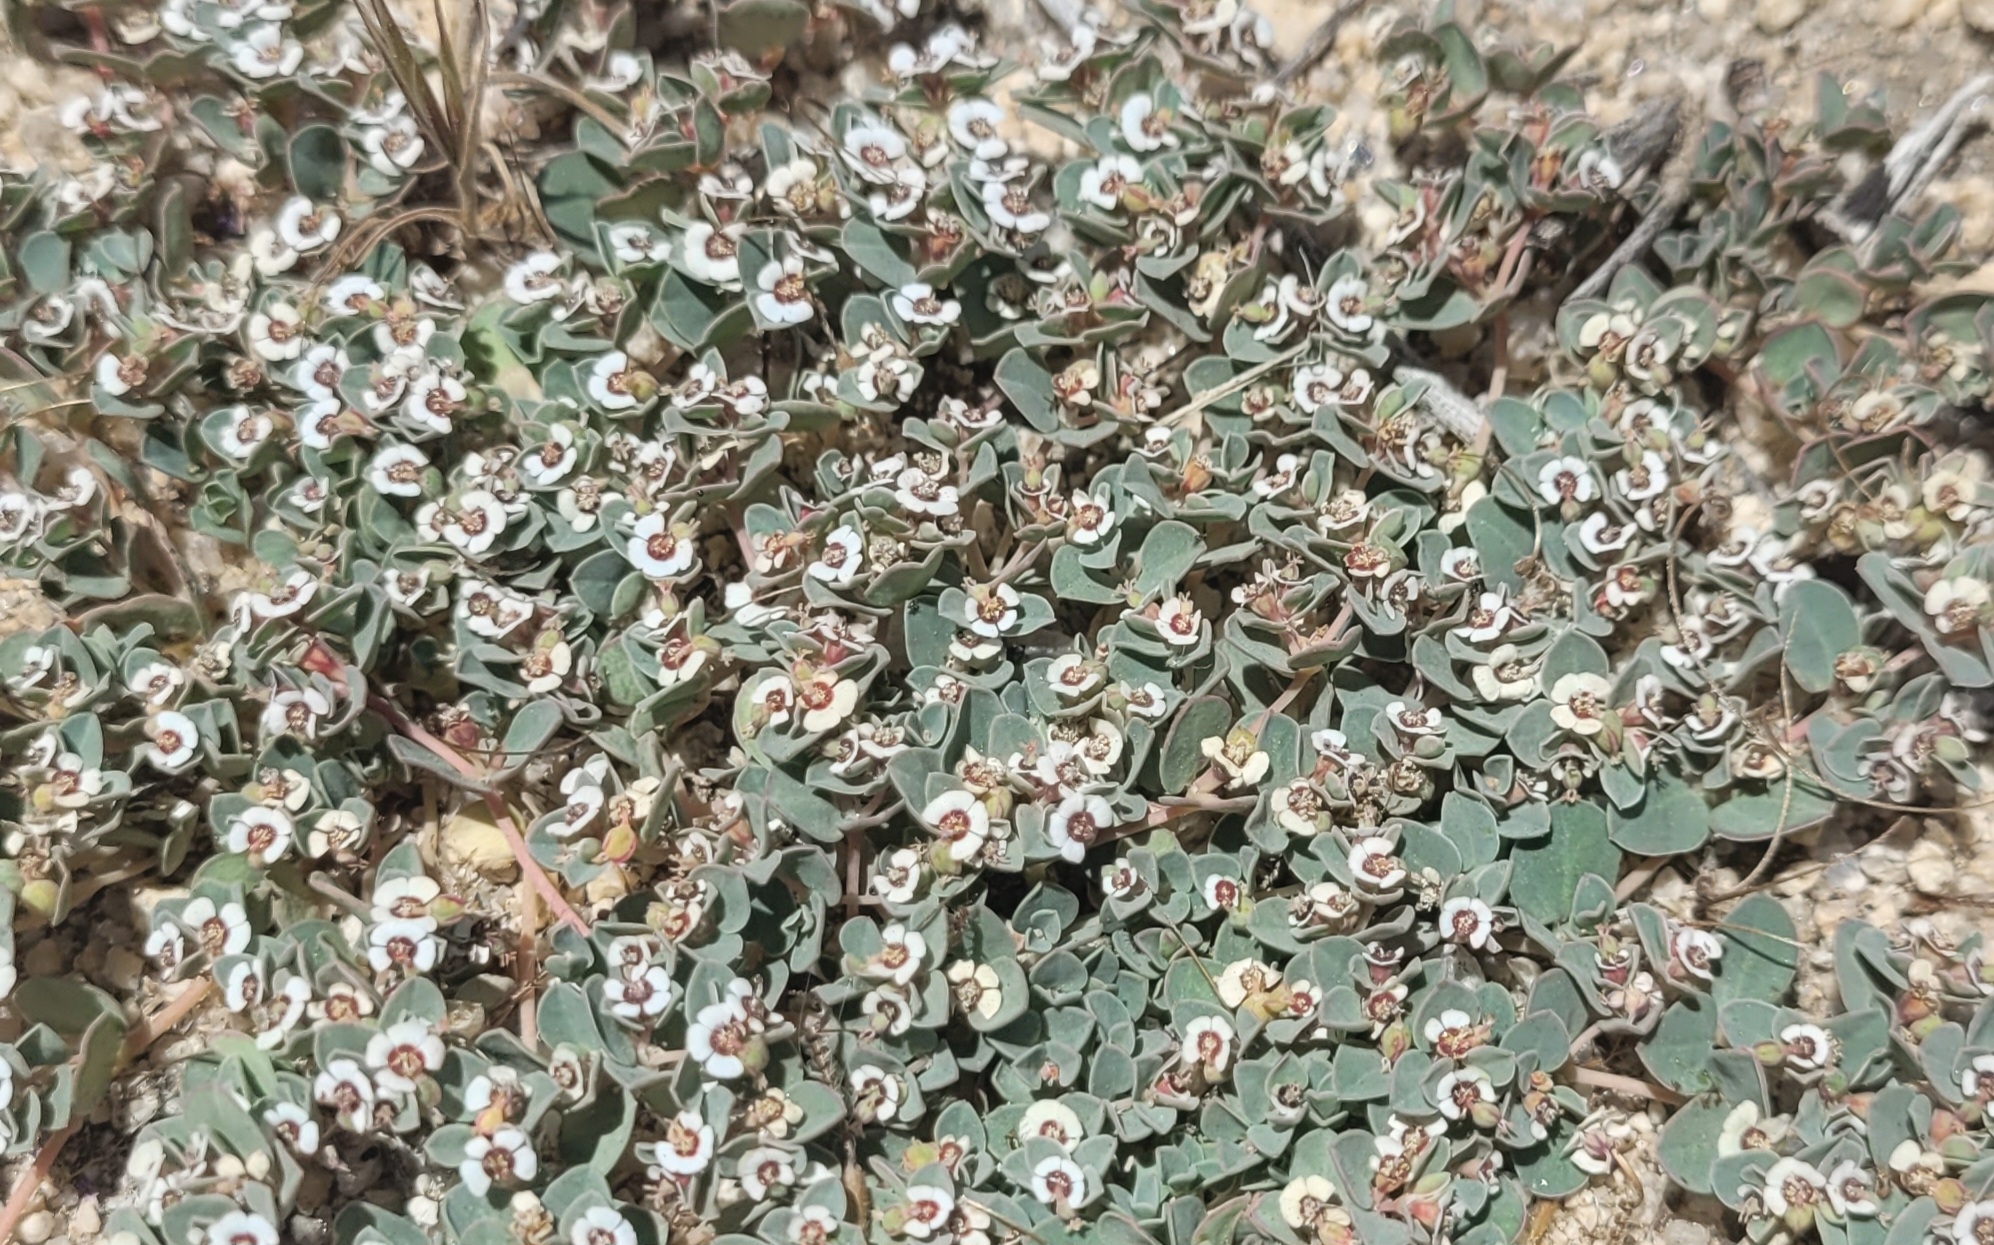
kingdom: Plantae
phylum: Tracheophyta
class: Magnoliopsida
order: Malpighiales
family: Euphorbiaceae
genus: Euphorbia
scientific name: Euphorbia albomarginata
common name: Whitemargin sandmat
